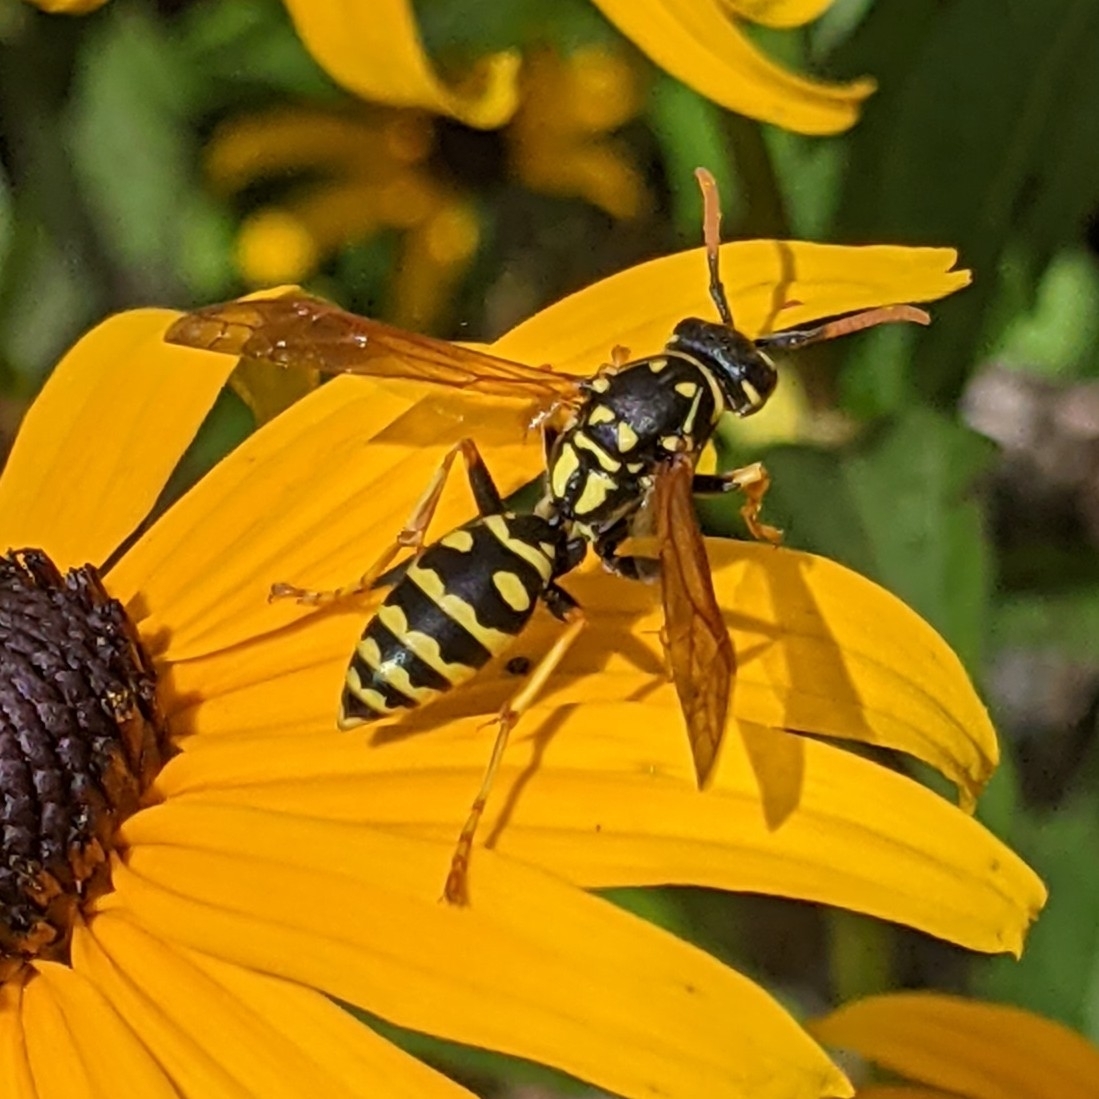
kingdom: Animalia
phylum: Arthropoda
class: Insecta
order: Hymenoptera
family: Eumenidae
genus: Polistes
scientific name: Polistes dominula
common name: Paper wasp
